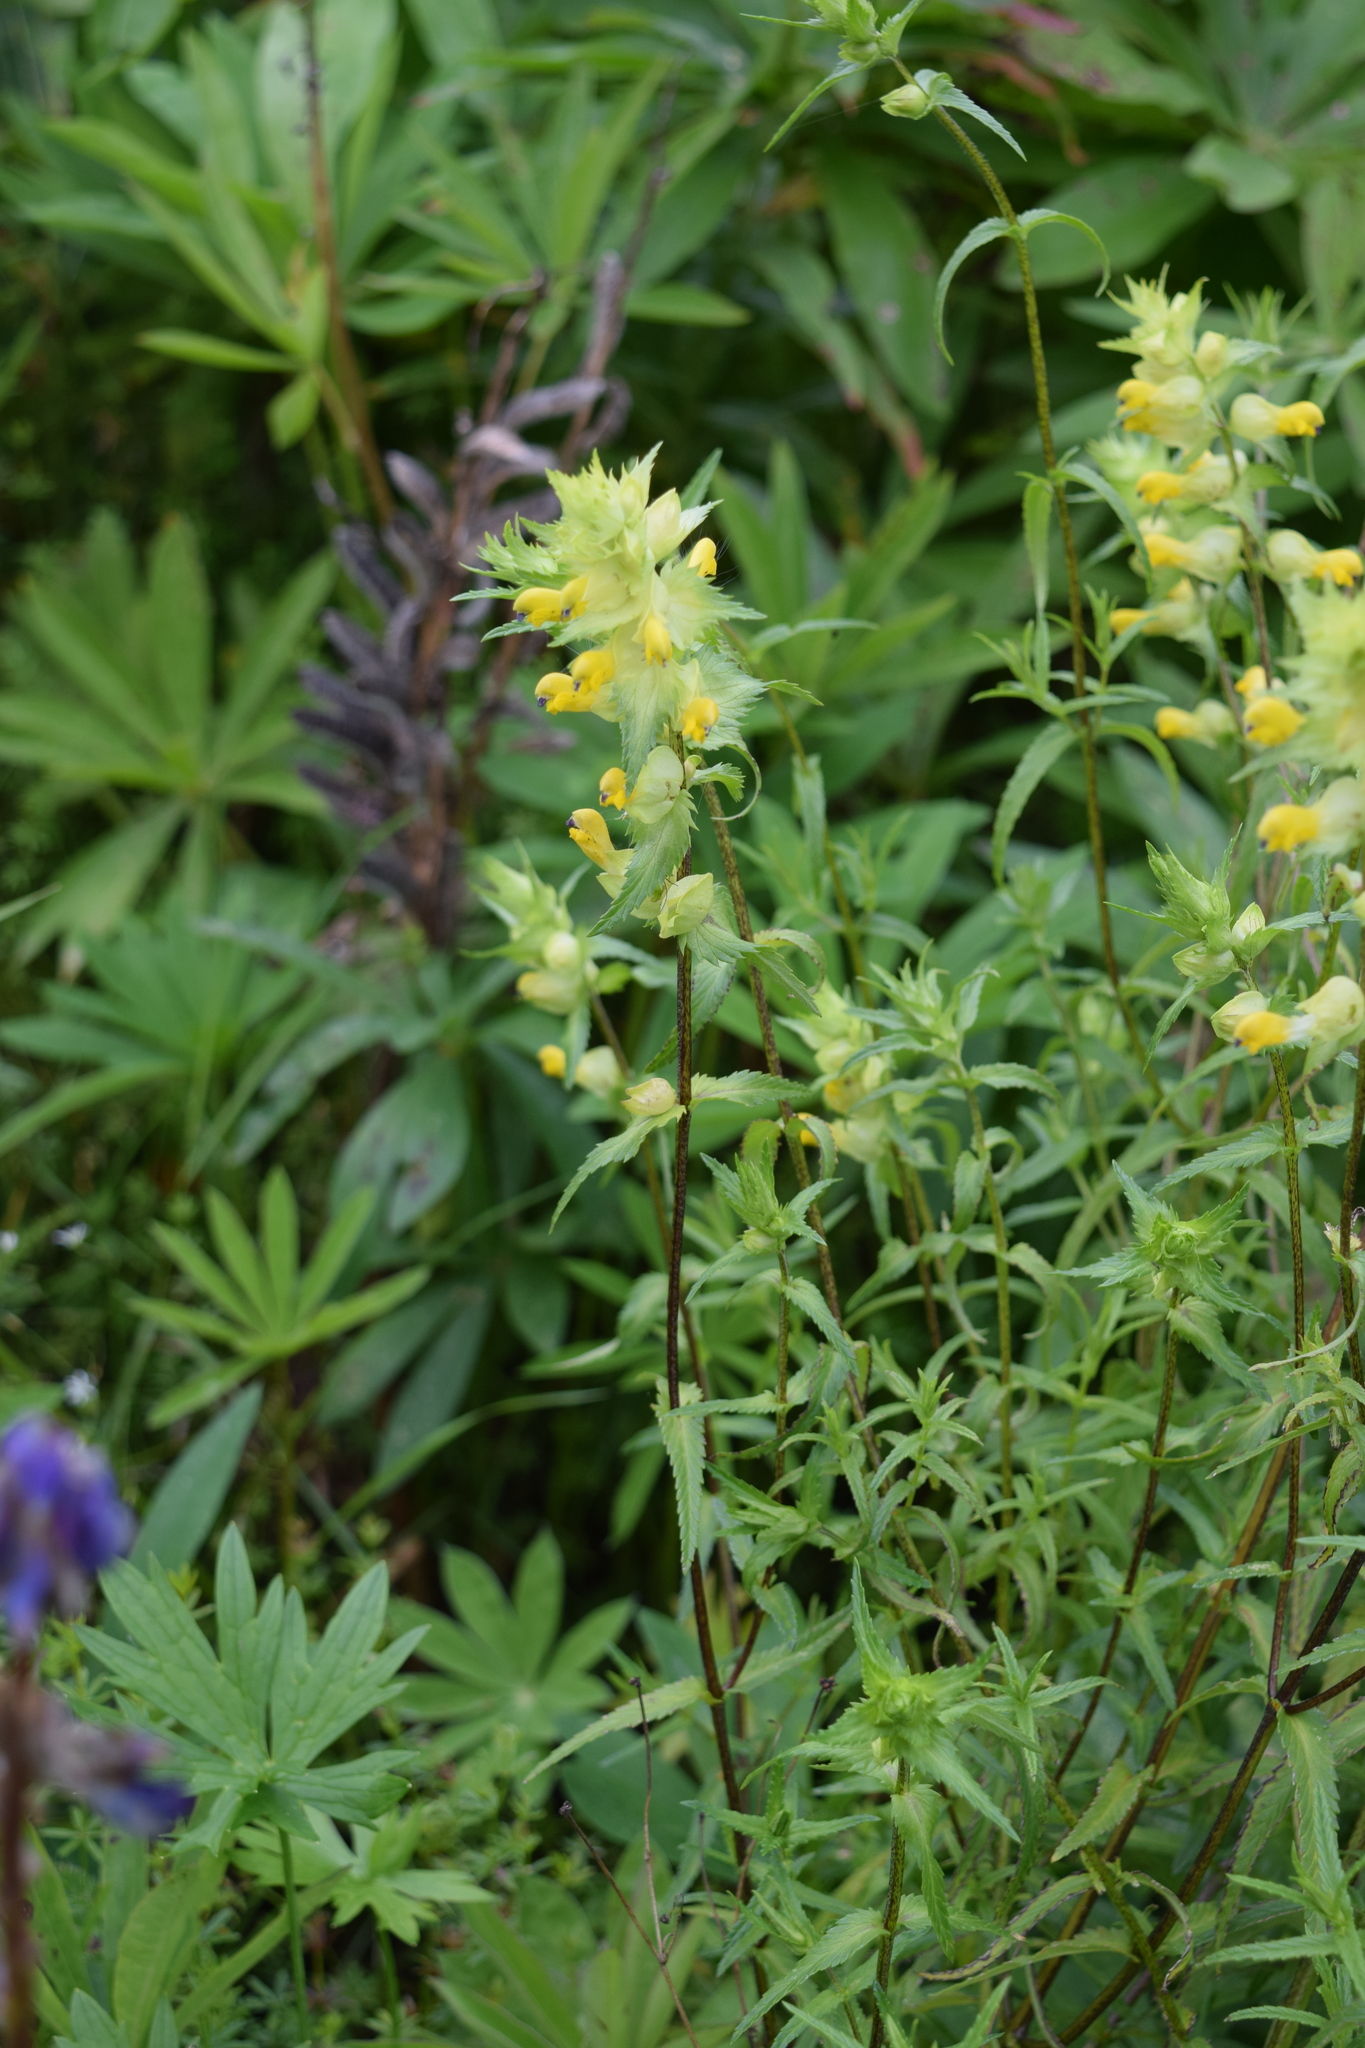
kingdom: Plantae
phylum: Tracheophyta
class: Magnoliopsida
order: Lamiales
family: Orobanchaceae
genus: Rhinanthus
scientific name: Rhinanthus serotinus
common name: Late-flowering yellow rattle
